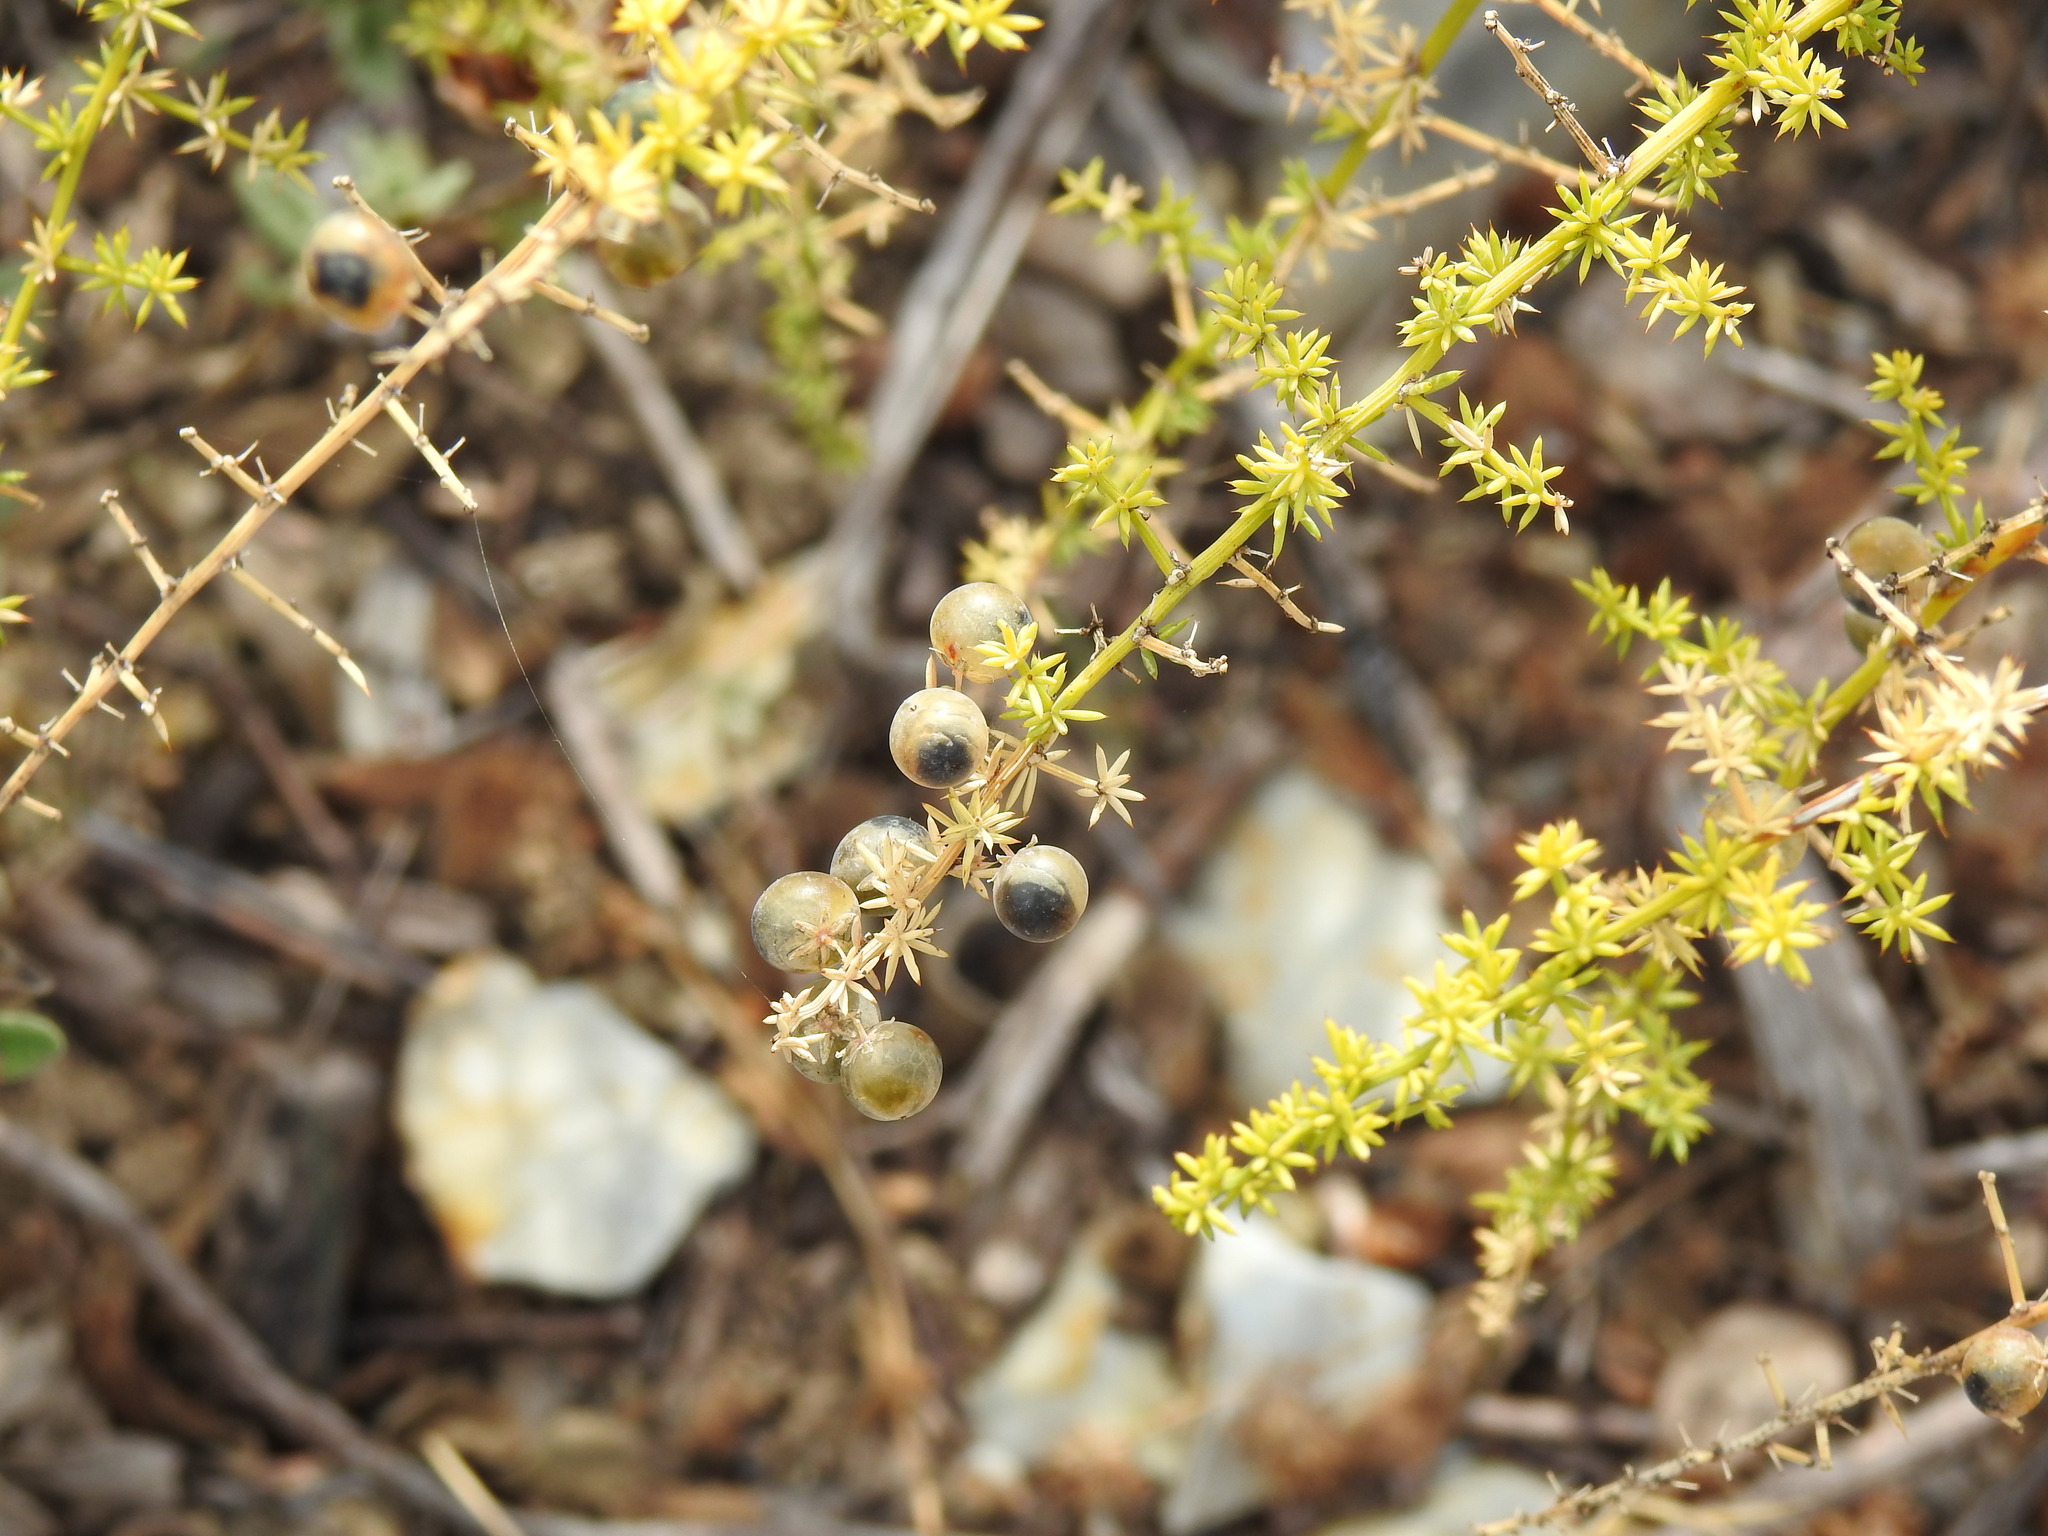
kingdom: Plantae
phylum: Tracheophyta
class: Liliopsida
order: Asparagales
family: Asparagaceae
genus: Asparagus
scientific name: Asparagus acutifolius
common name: Wild asparagus
